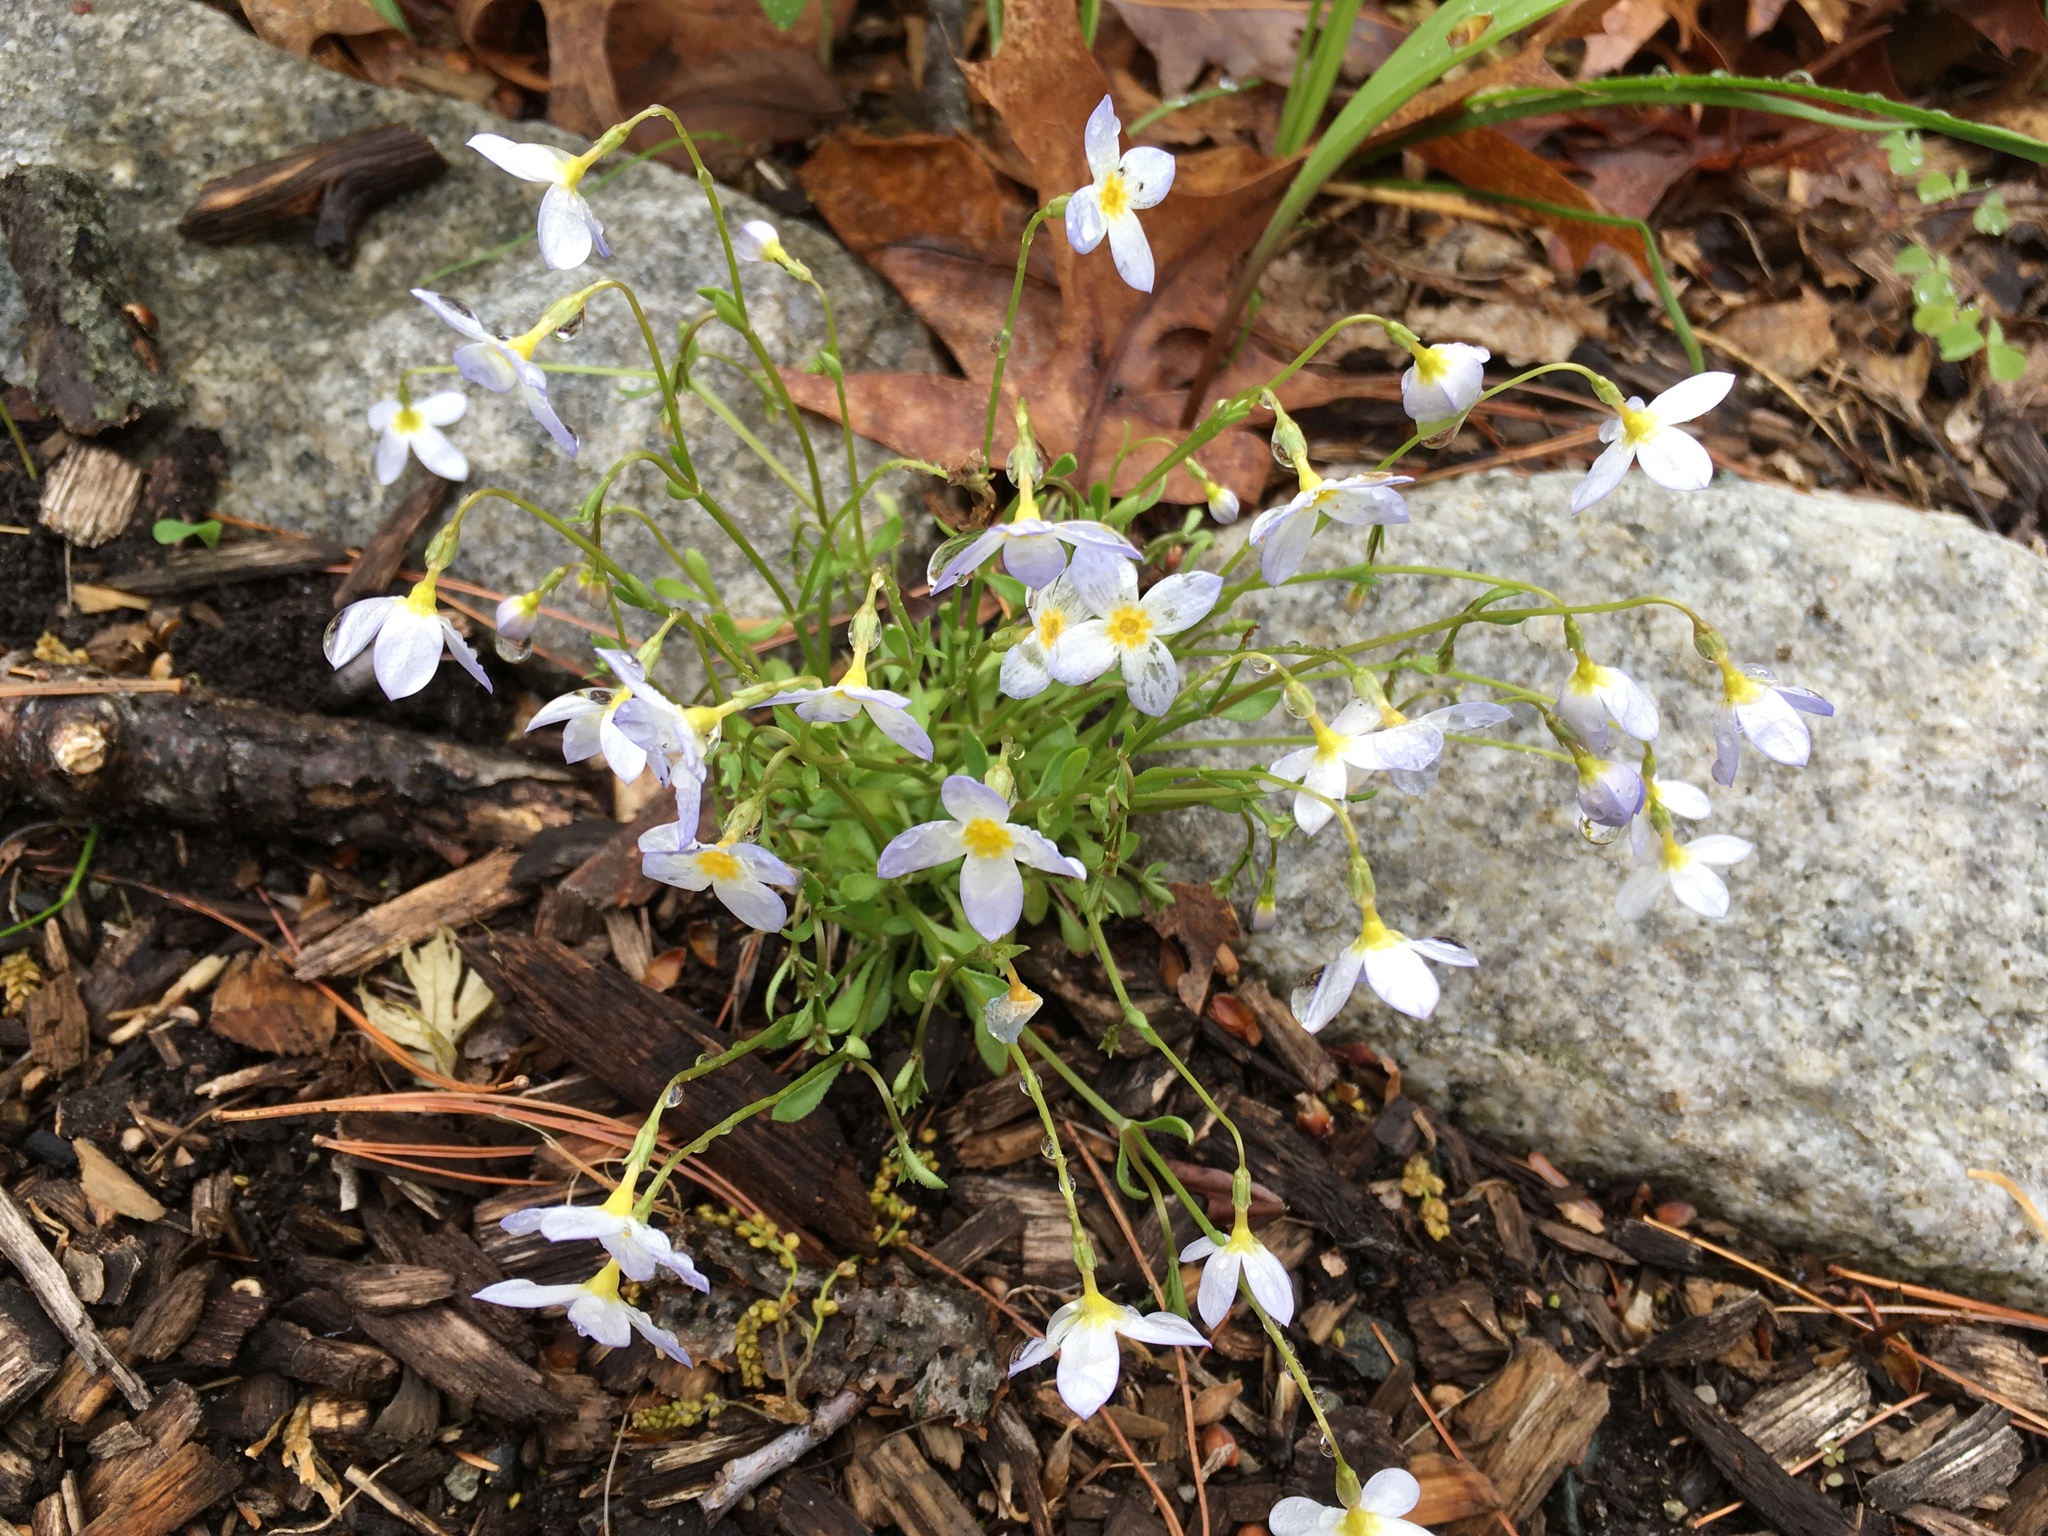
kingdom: Plantae
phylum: Tracheophyta
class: Magnoliopsida
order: Gentianales
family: Rubiaceae
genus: Houstonia
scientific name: Houstonia caerulea
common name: Bluets
